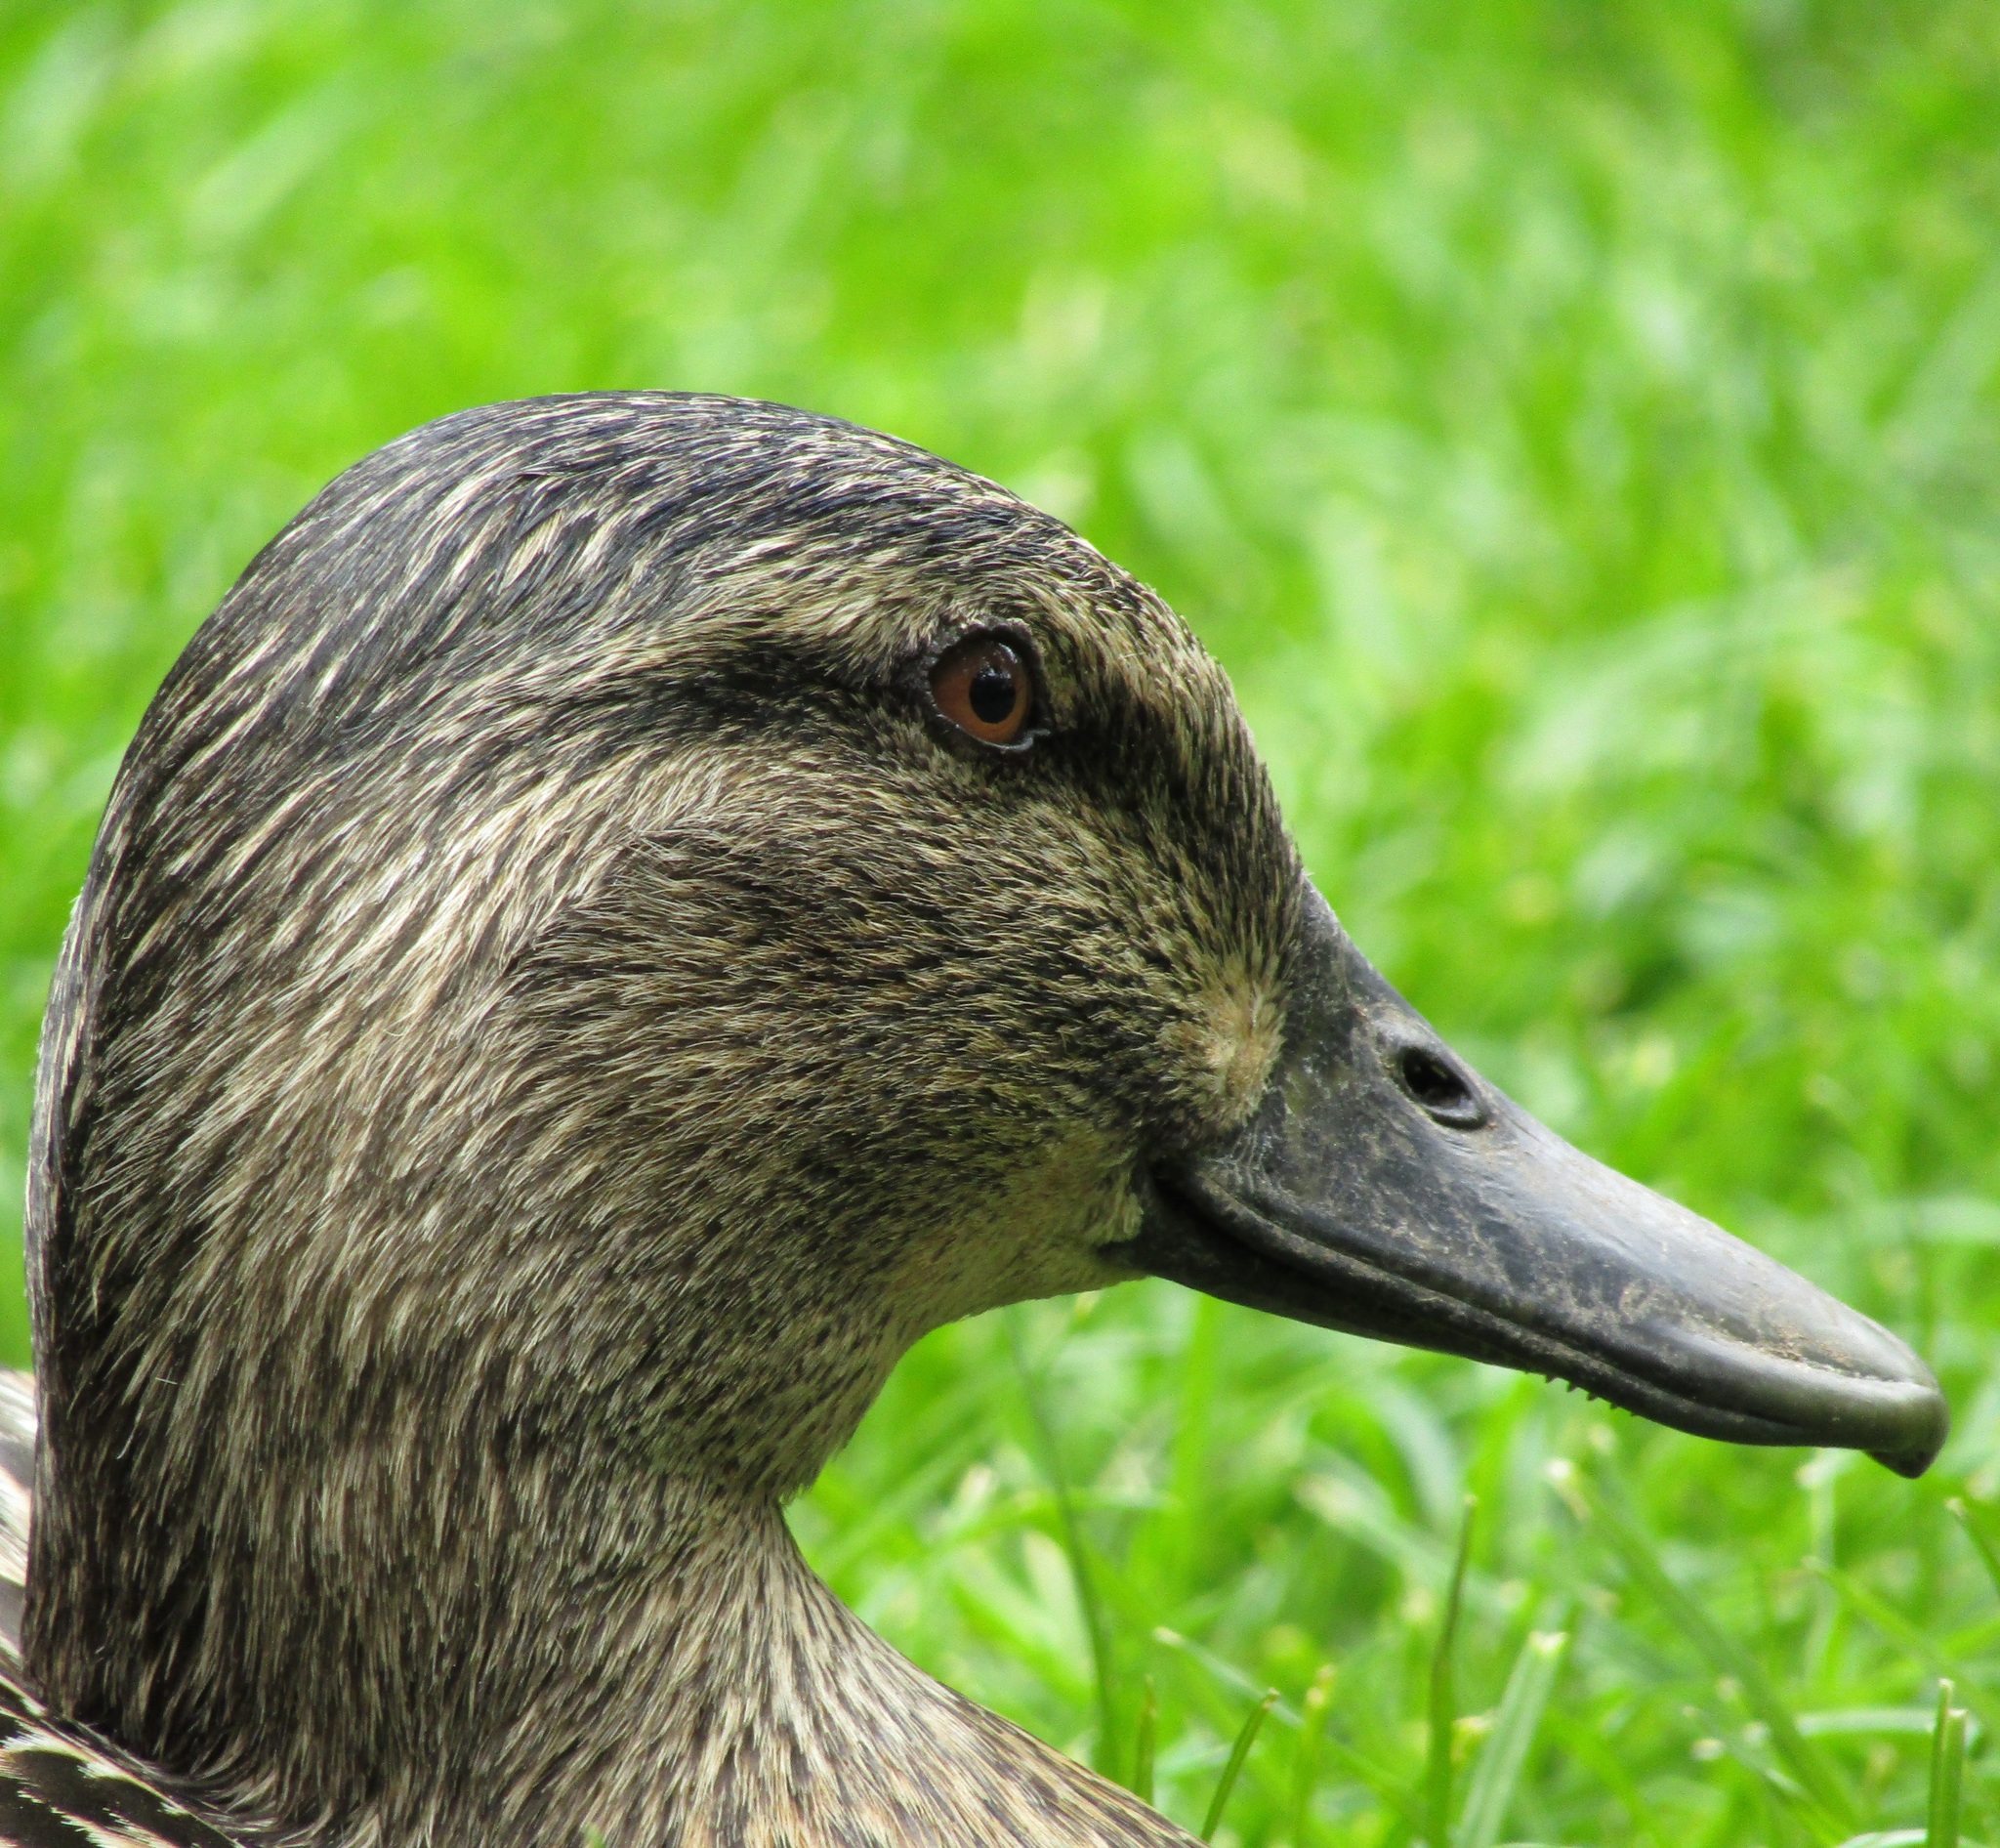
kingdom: Animalia
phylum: Chordata
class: Aves
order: Anseriformes
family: Anatidae
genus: Anas
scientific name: Anas
